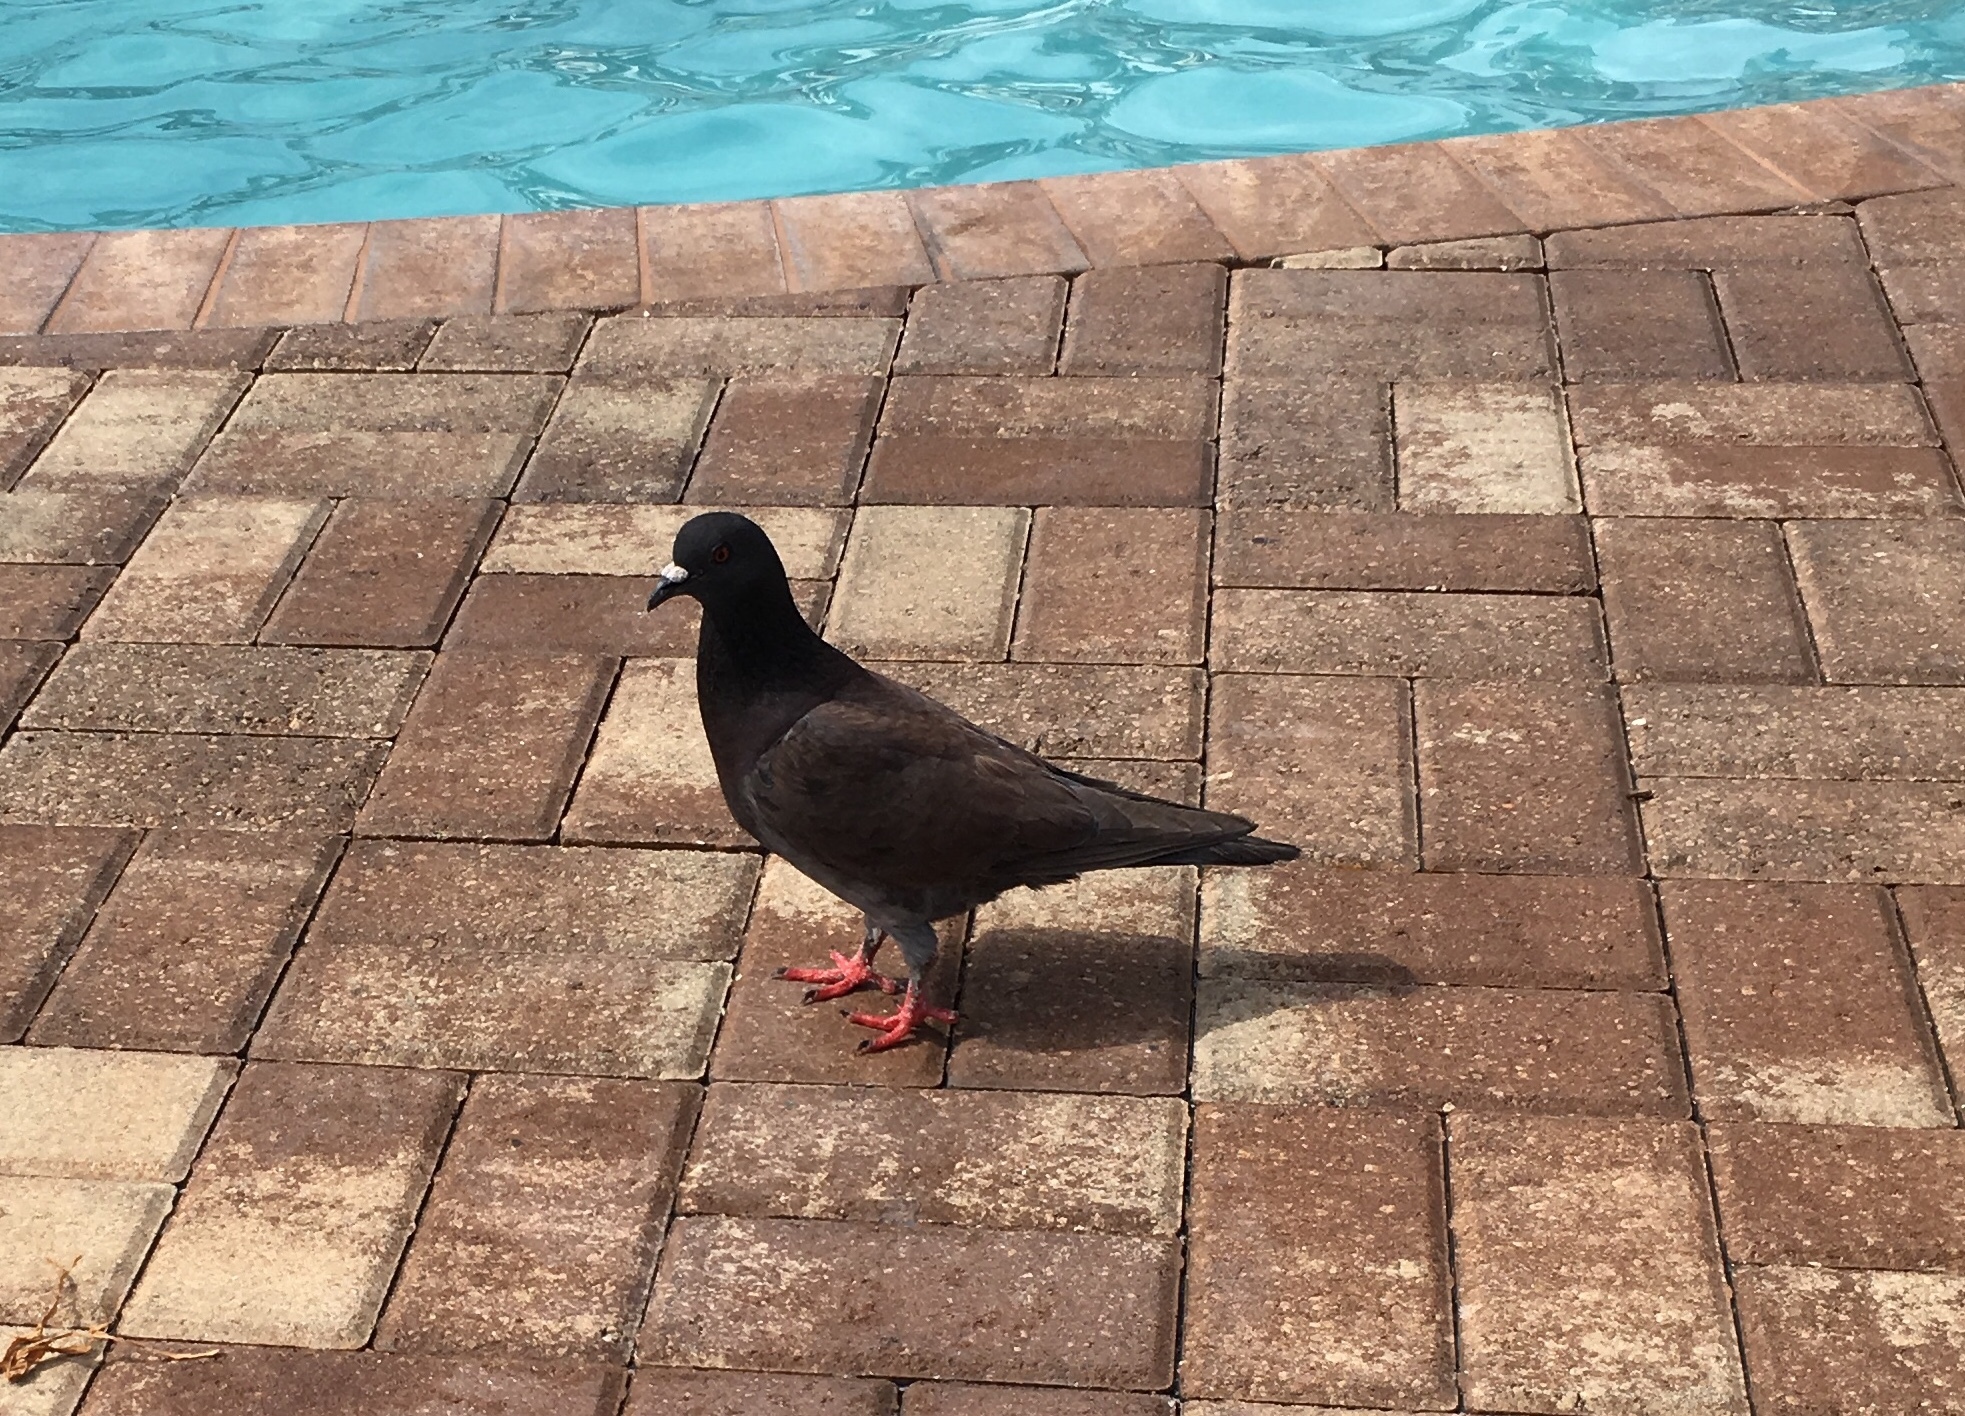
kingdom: Animalia
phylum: Chordata
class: Aves
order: Columbiformes
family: Columbidae
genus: Columba
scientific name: Columba livia
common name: Rock pigeon
